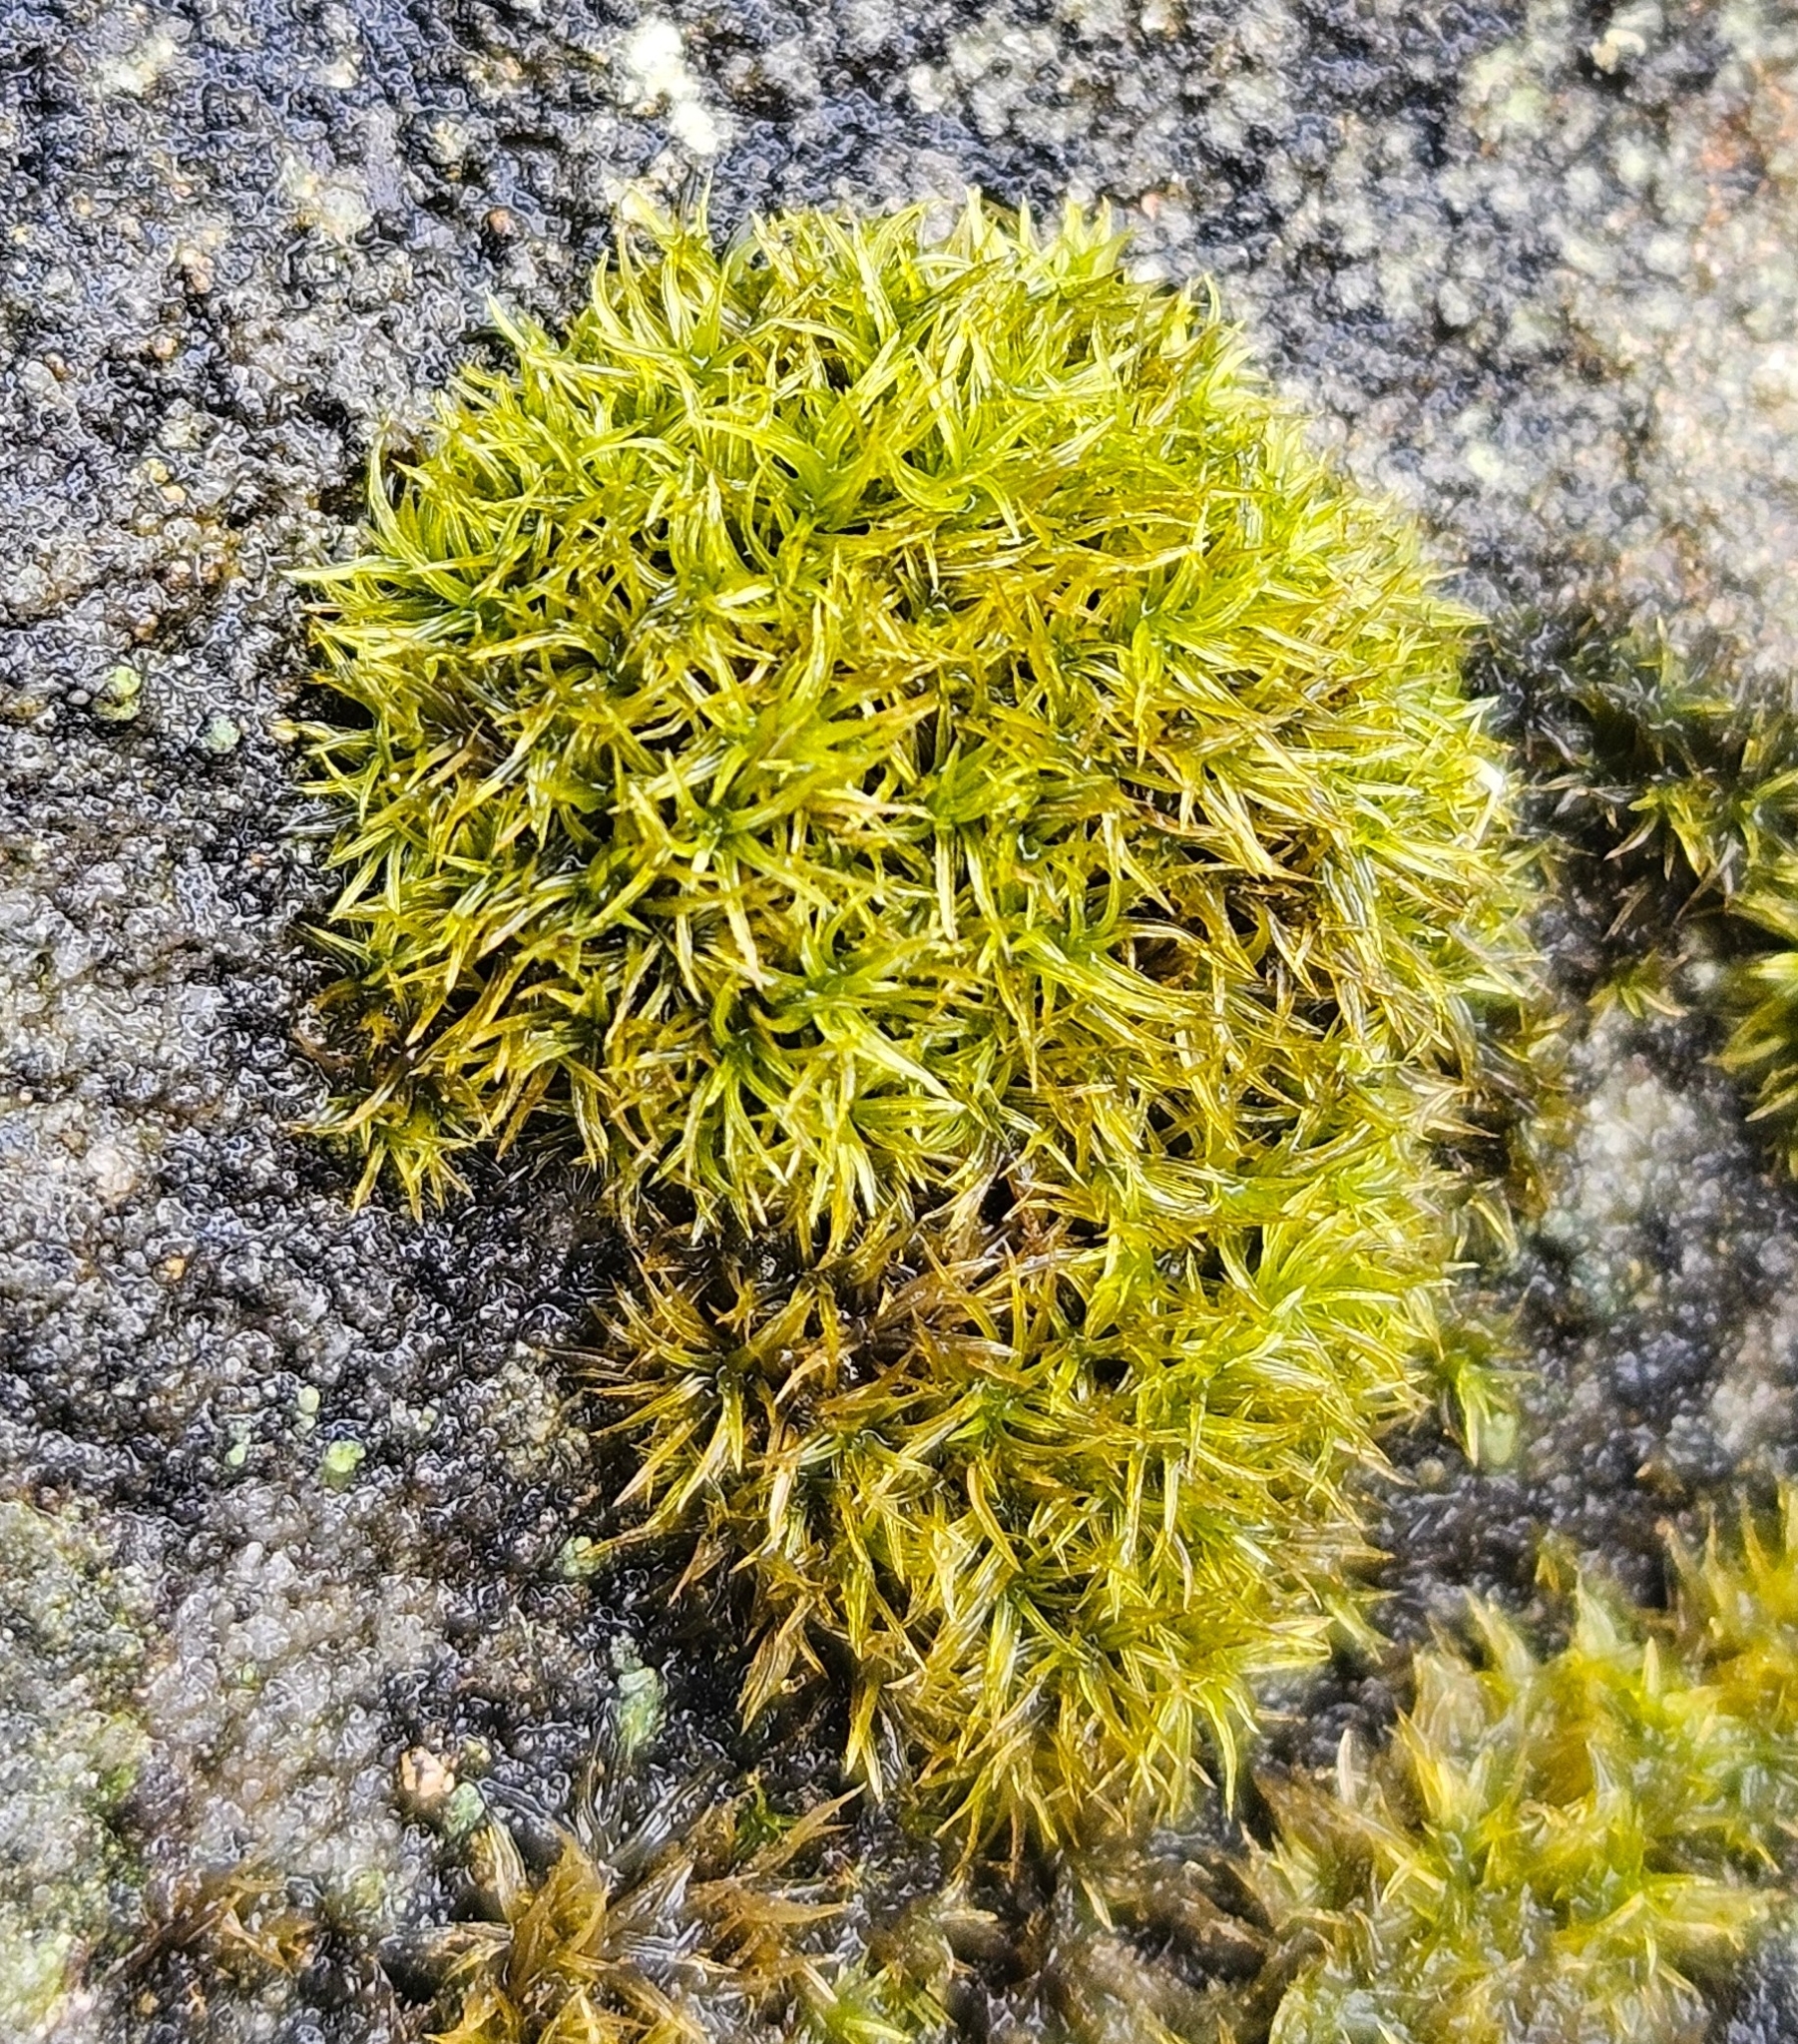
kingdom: Plantae
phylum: Bryophyta
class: Bryopsida
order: Dicranales
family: Rhabdoweisiaceae
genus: Dicranoweisia
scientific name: Dicranoweisia cirrata
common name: Common pincushion
